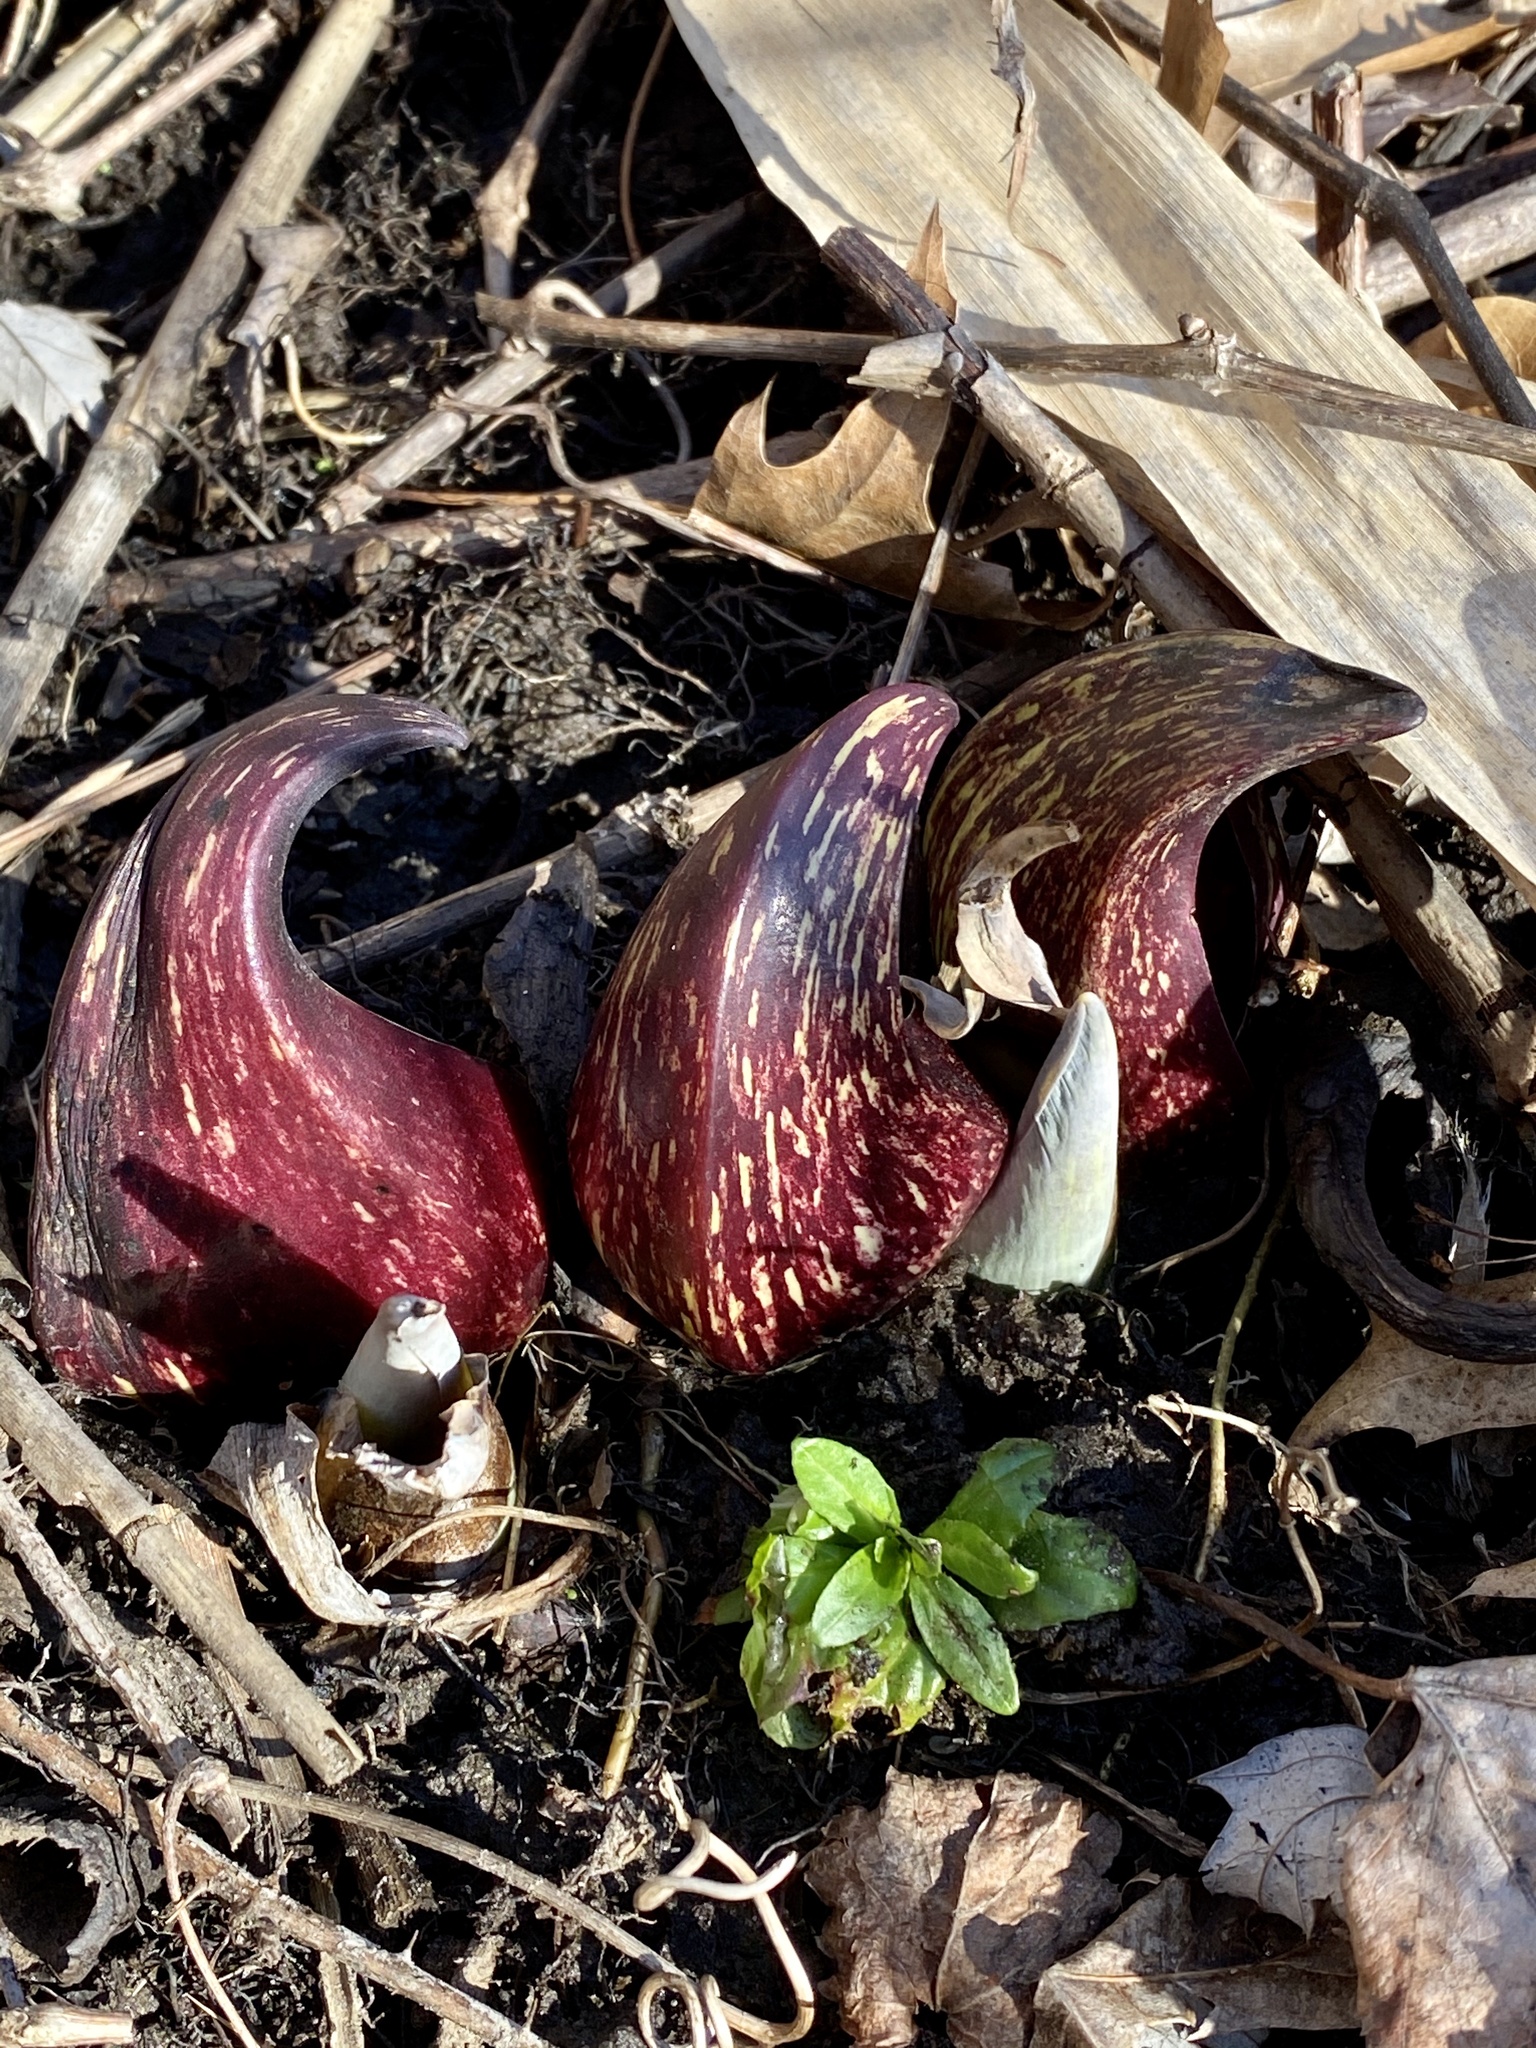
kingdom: Plantae
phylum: Tracheophyta
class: Liliopsida
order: Alismatales
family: Araceae
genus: Symplocarpus
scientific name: Symplocarpus foetidus
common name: Eastern skunk cabbage
